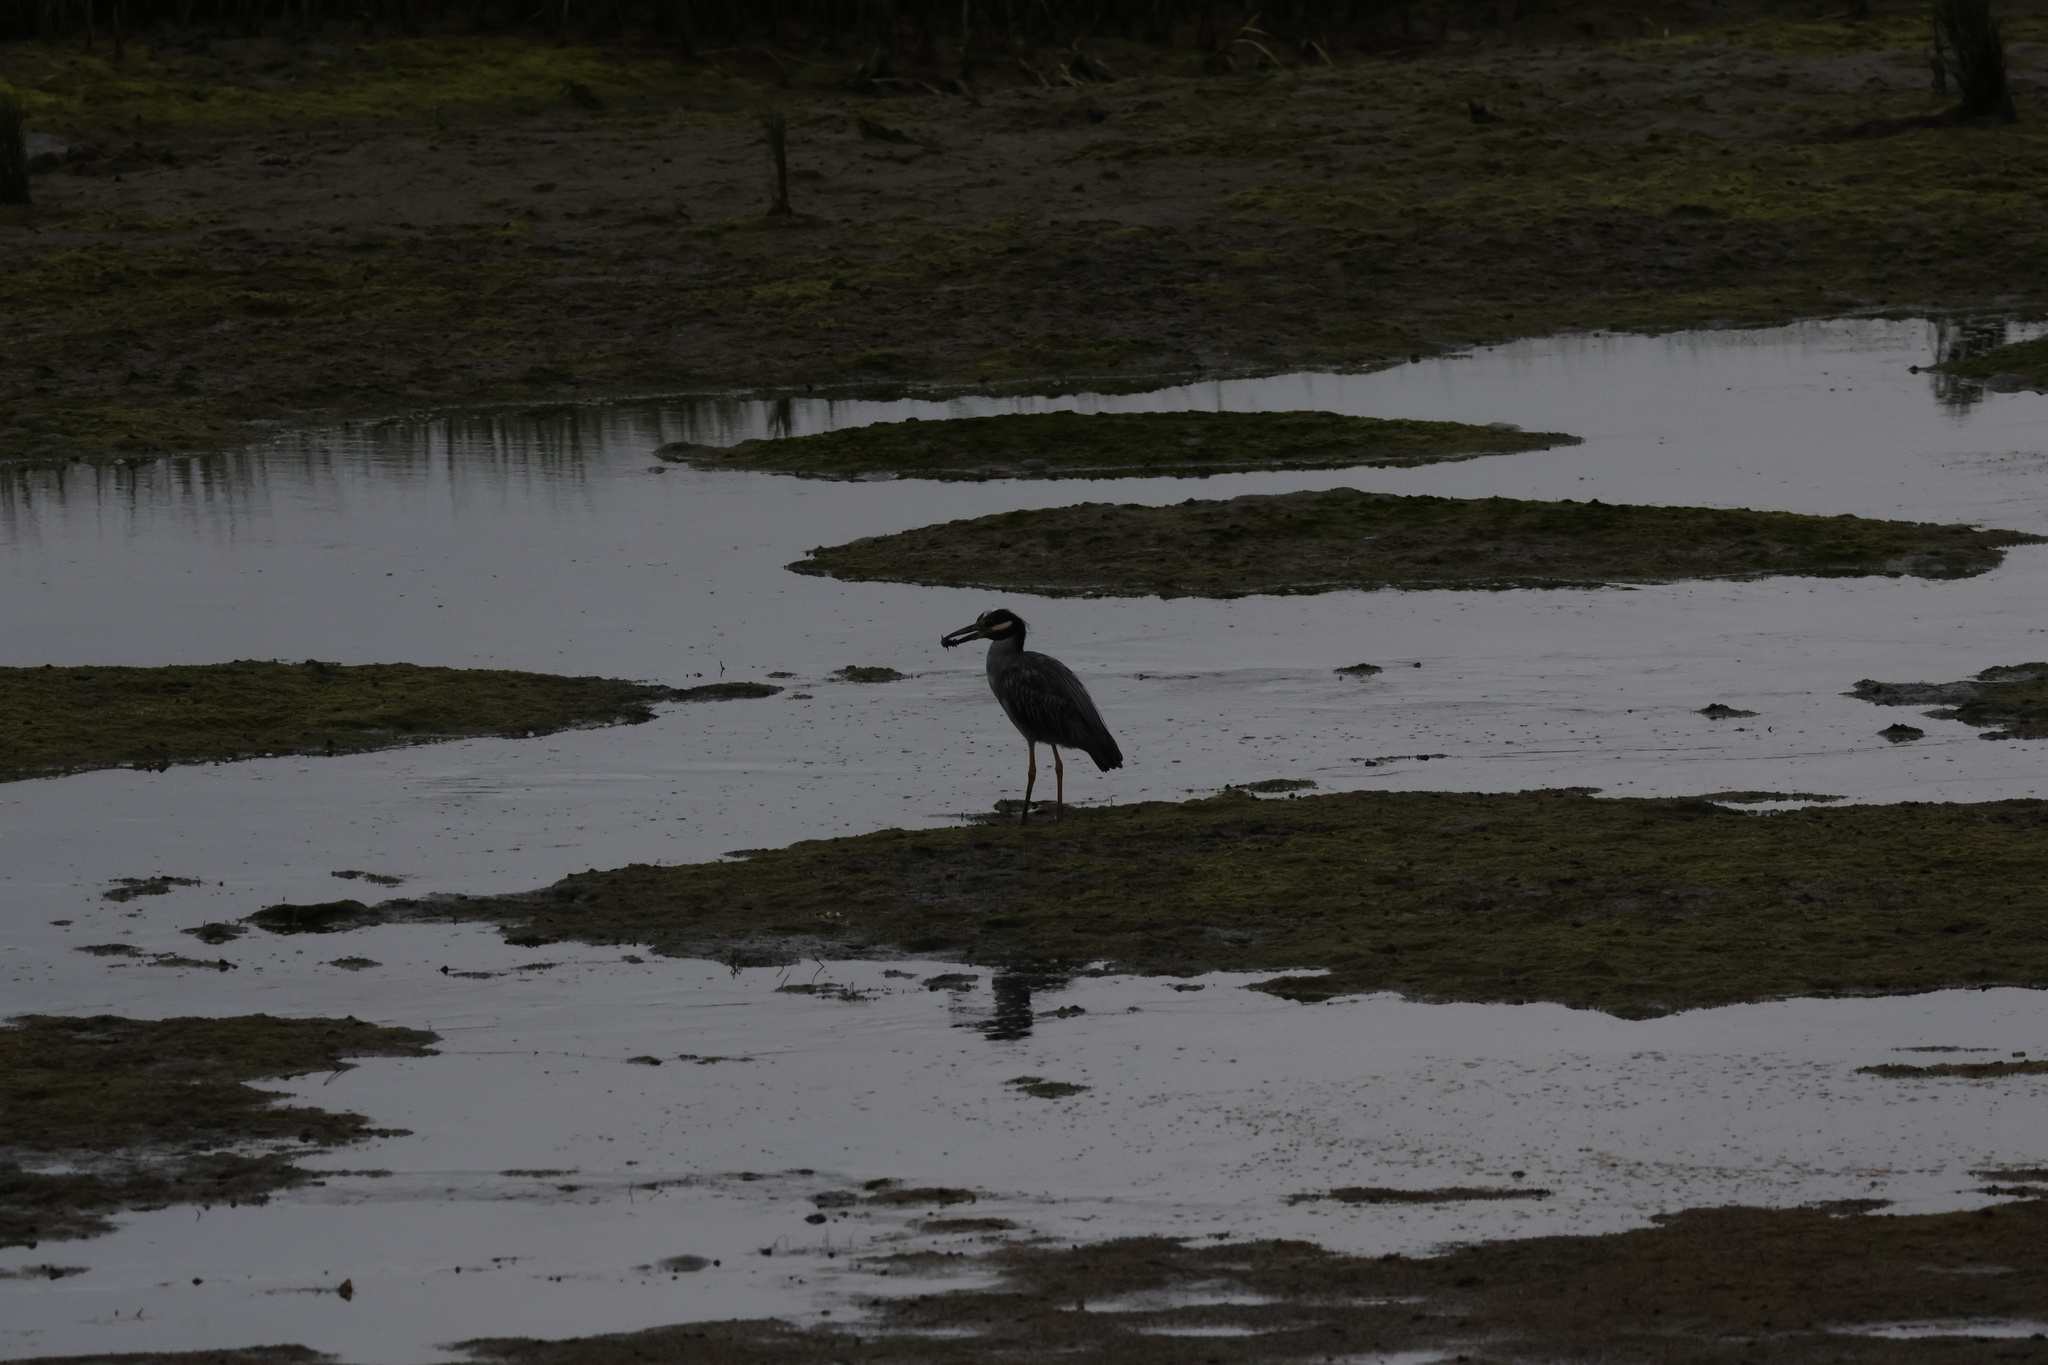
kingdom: Animalia
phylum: Chordata
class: Aves
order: Pelecaniformes
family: Ardeidae
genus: Nyctanassa
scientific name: Nyctanassa violacea
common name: Yellow-crowned night heron
